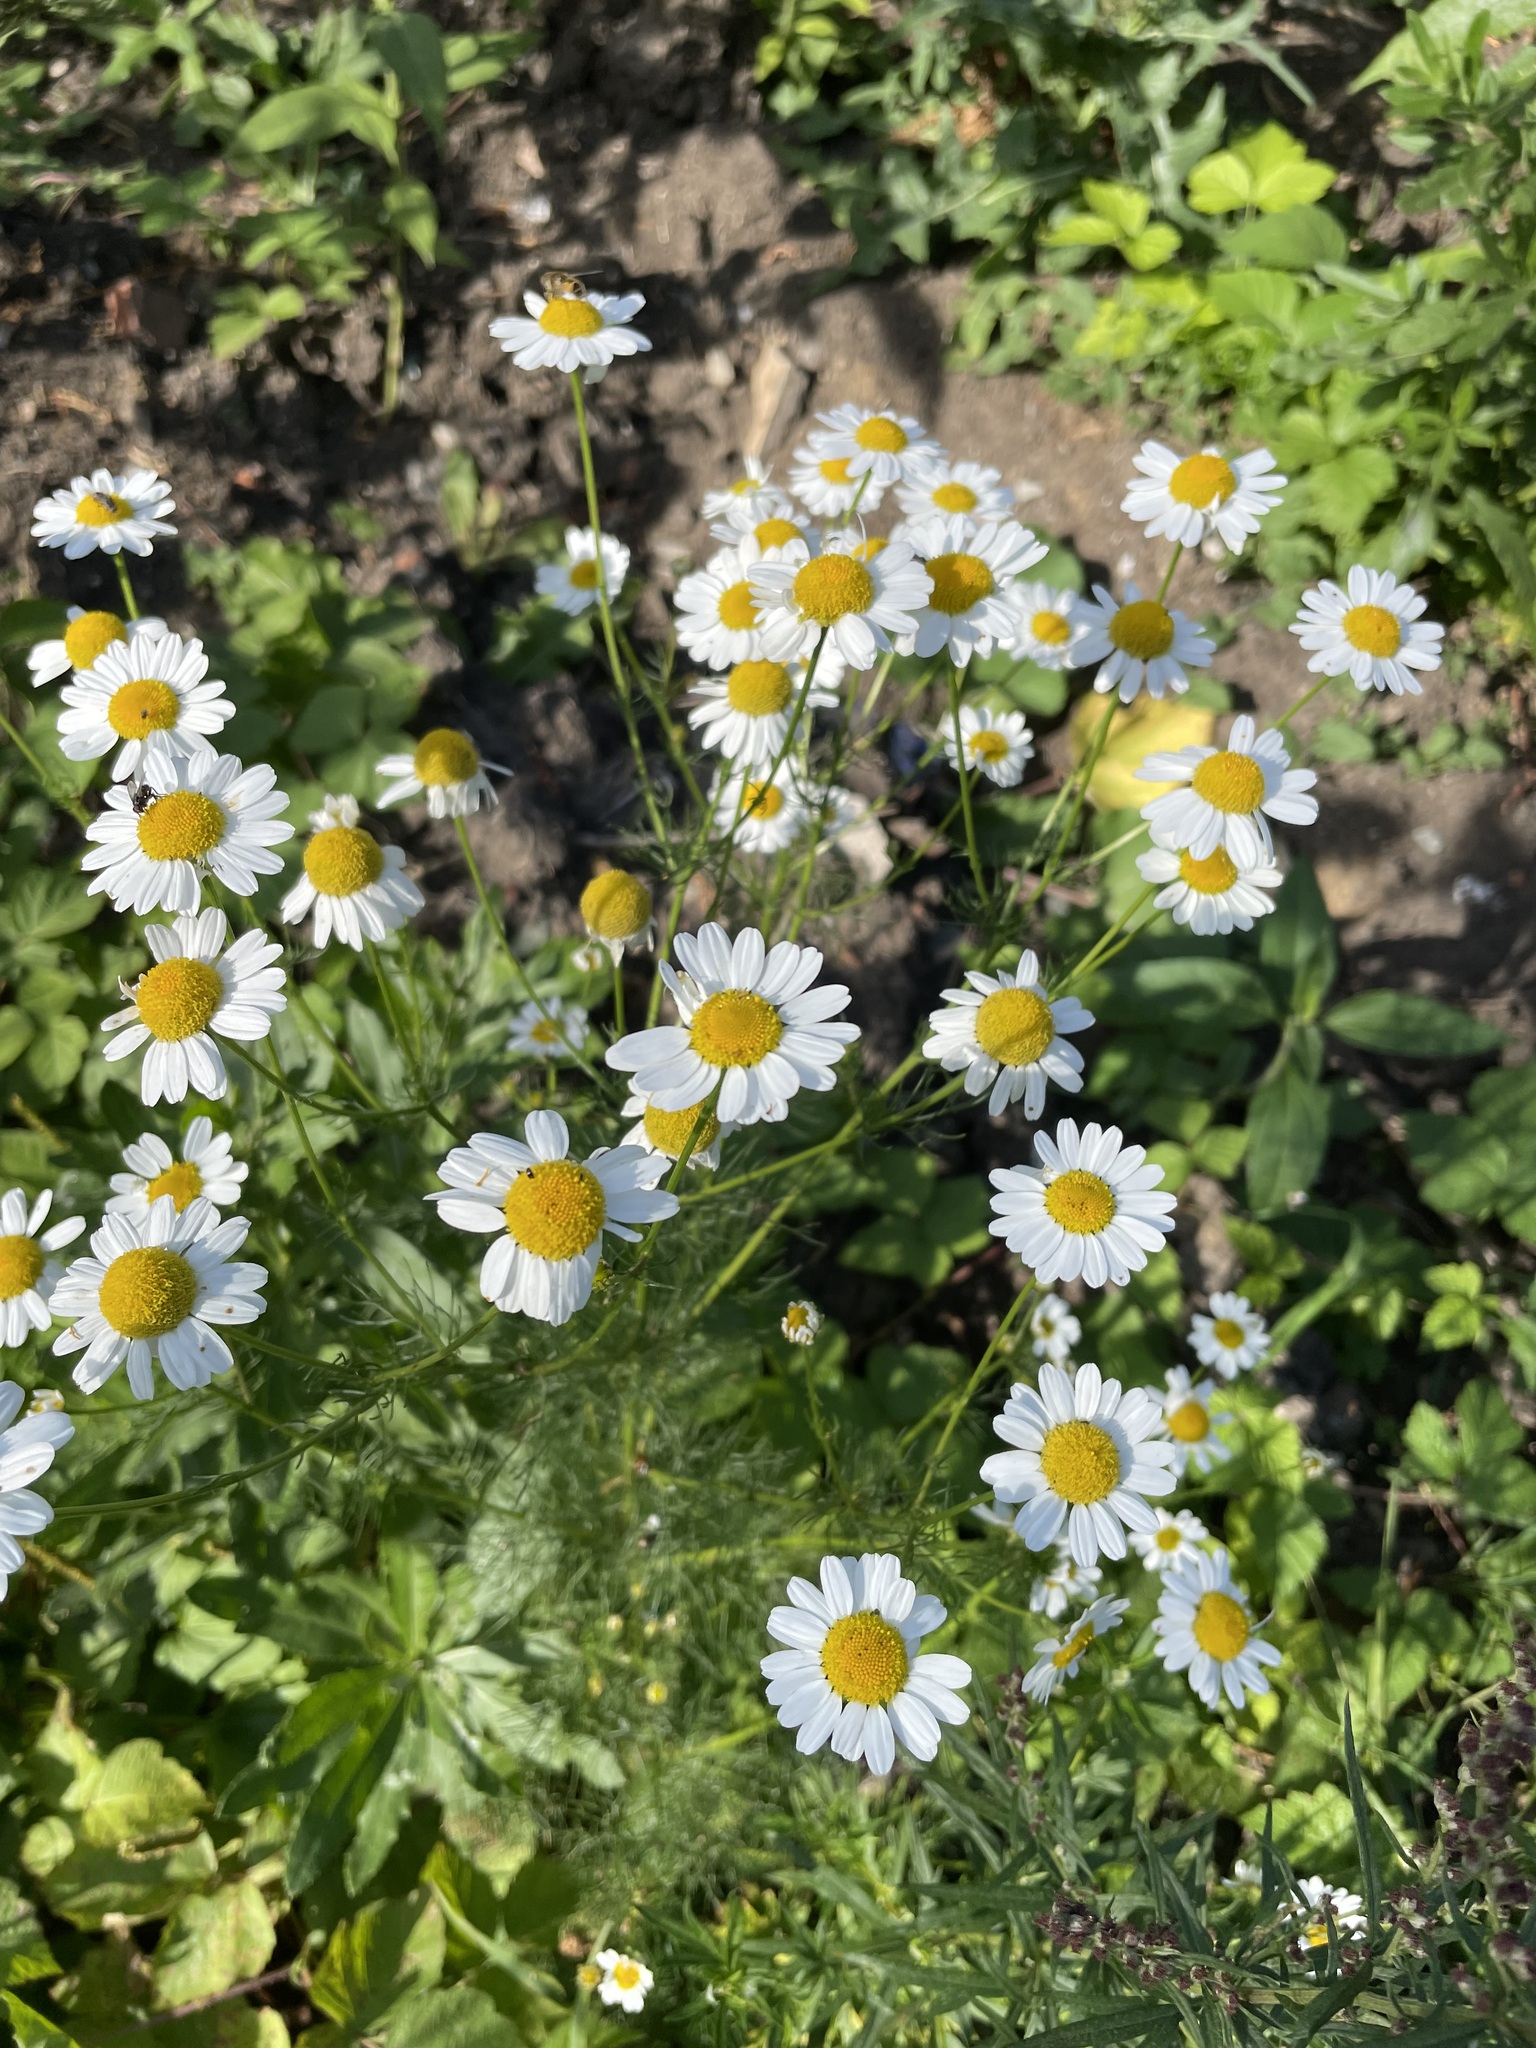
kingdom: Plantae
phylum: Tracheophyta
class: Magnoliopsida
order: Asterales
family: Asteraceae
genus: Tripleurospermum
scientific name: Tripleurospermum inodorum
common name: Scentless mayweed
